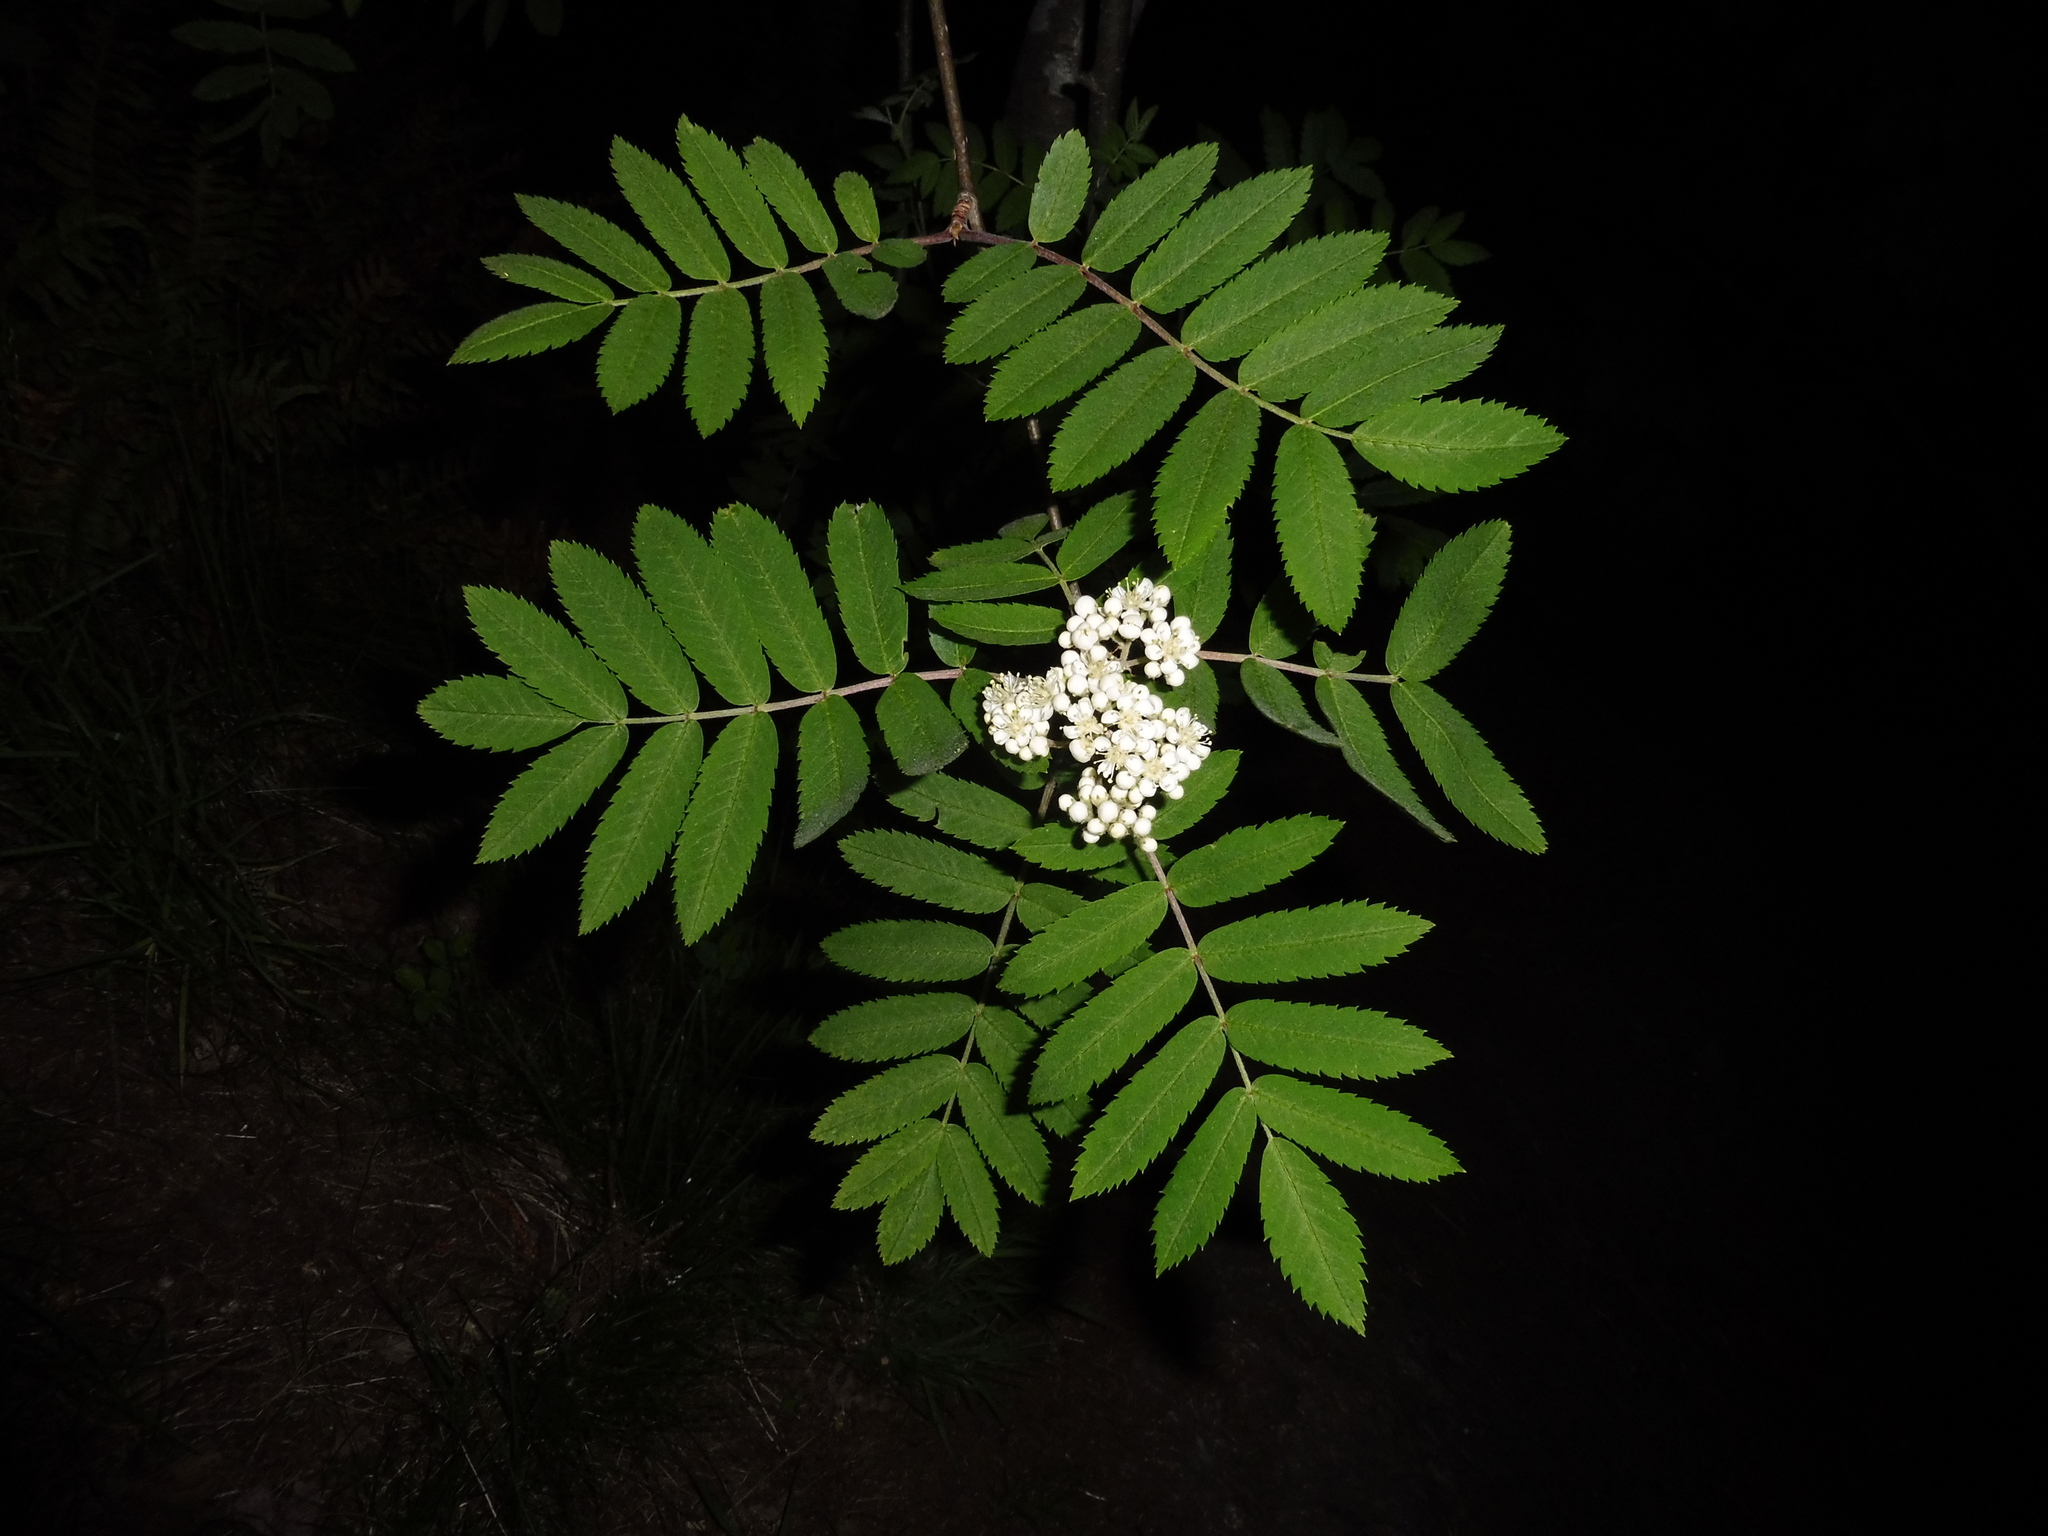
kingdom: Plantae
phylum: Tracheophyta
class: Magnoliopsida
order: Rosales
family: Rosaceae
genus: Sorbus
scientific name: Sorbus aucuparia
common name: Rowan
